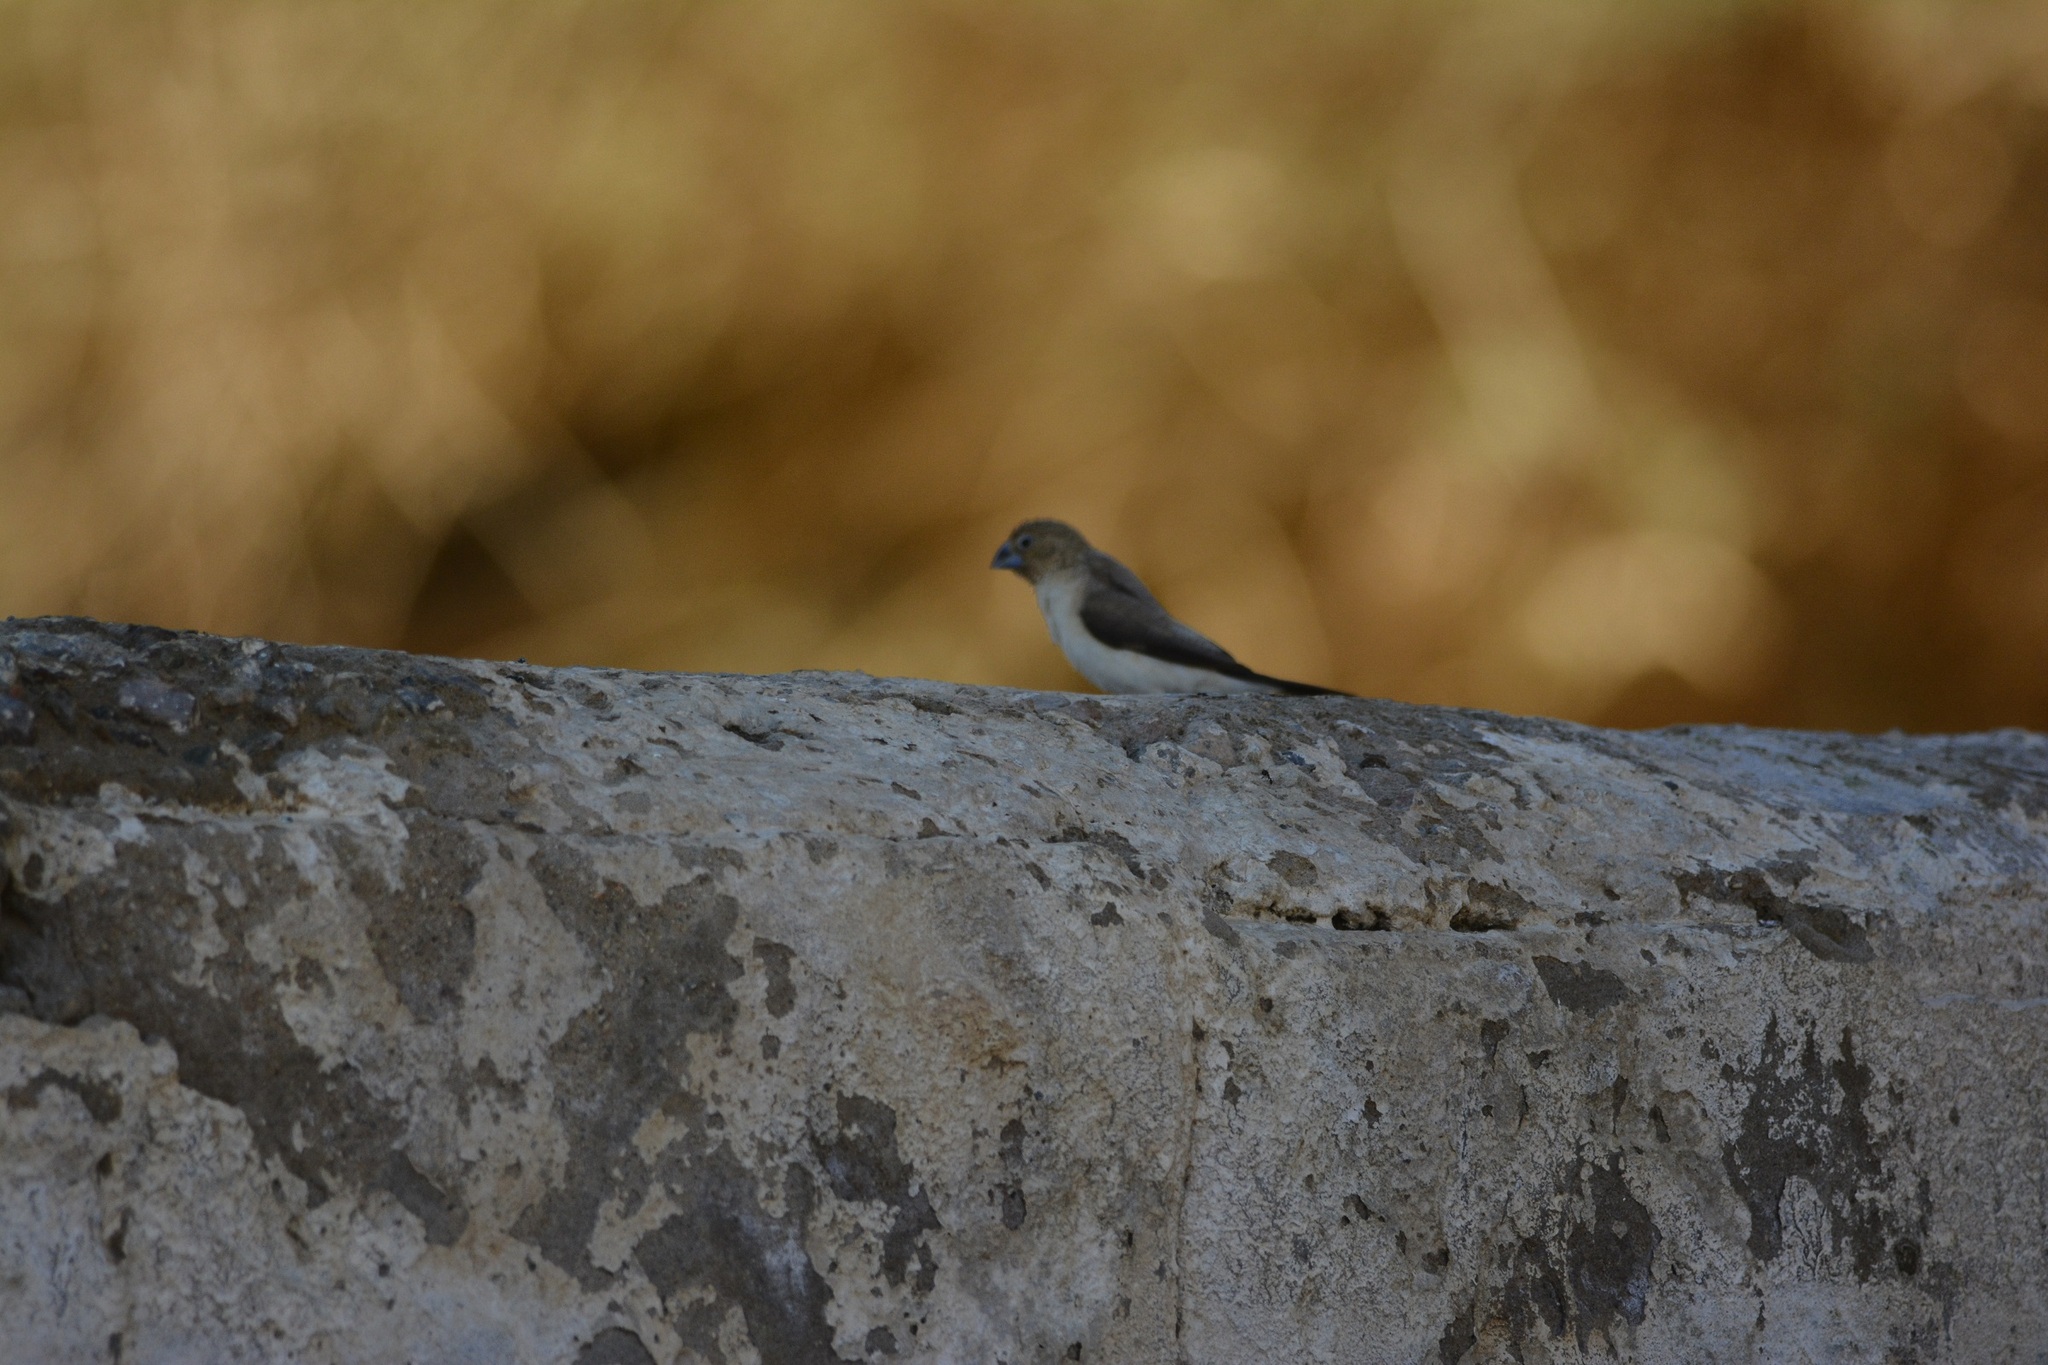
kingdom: Animalia
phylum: Chordata
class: Aves
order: Passeriformes
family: Estrildidae
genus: Euodice
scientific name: Euodice cantans
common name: African silverbill
